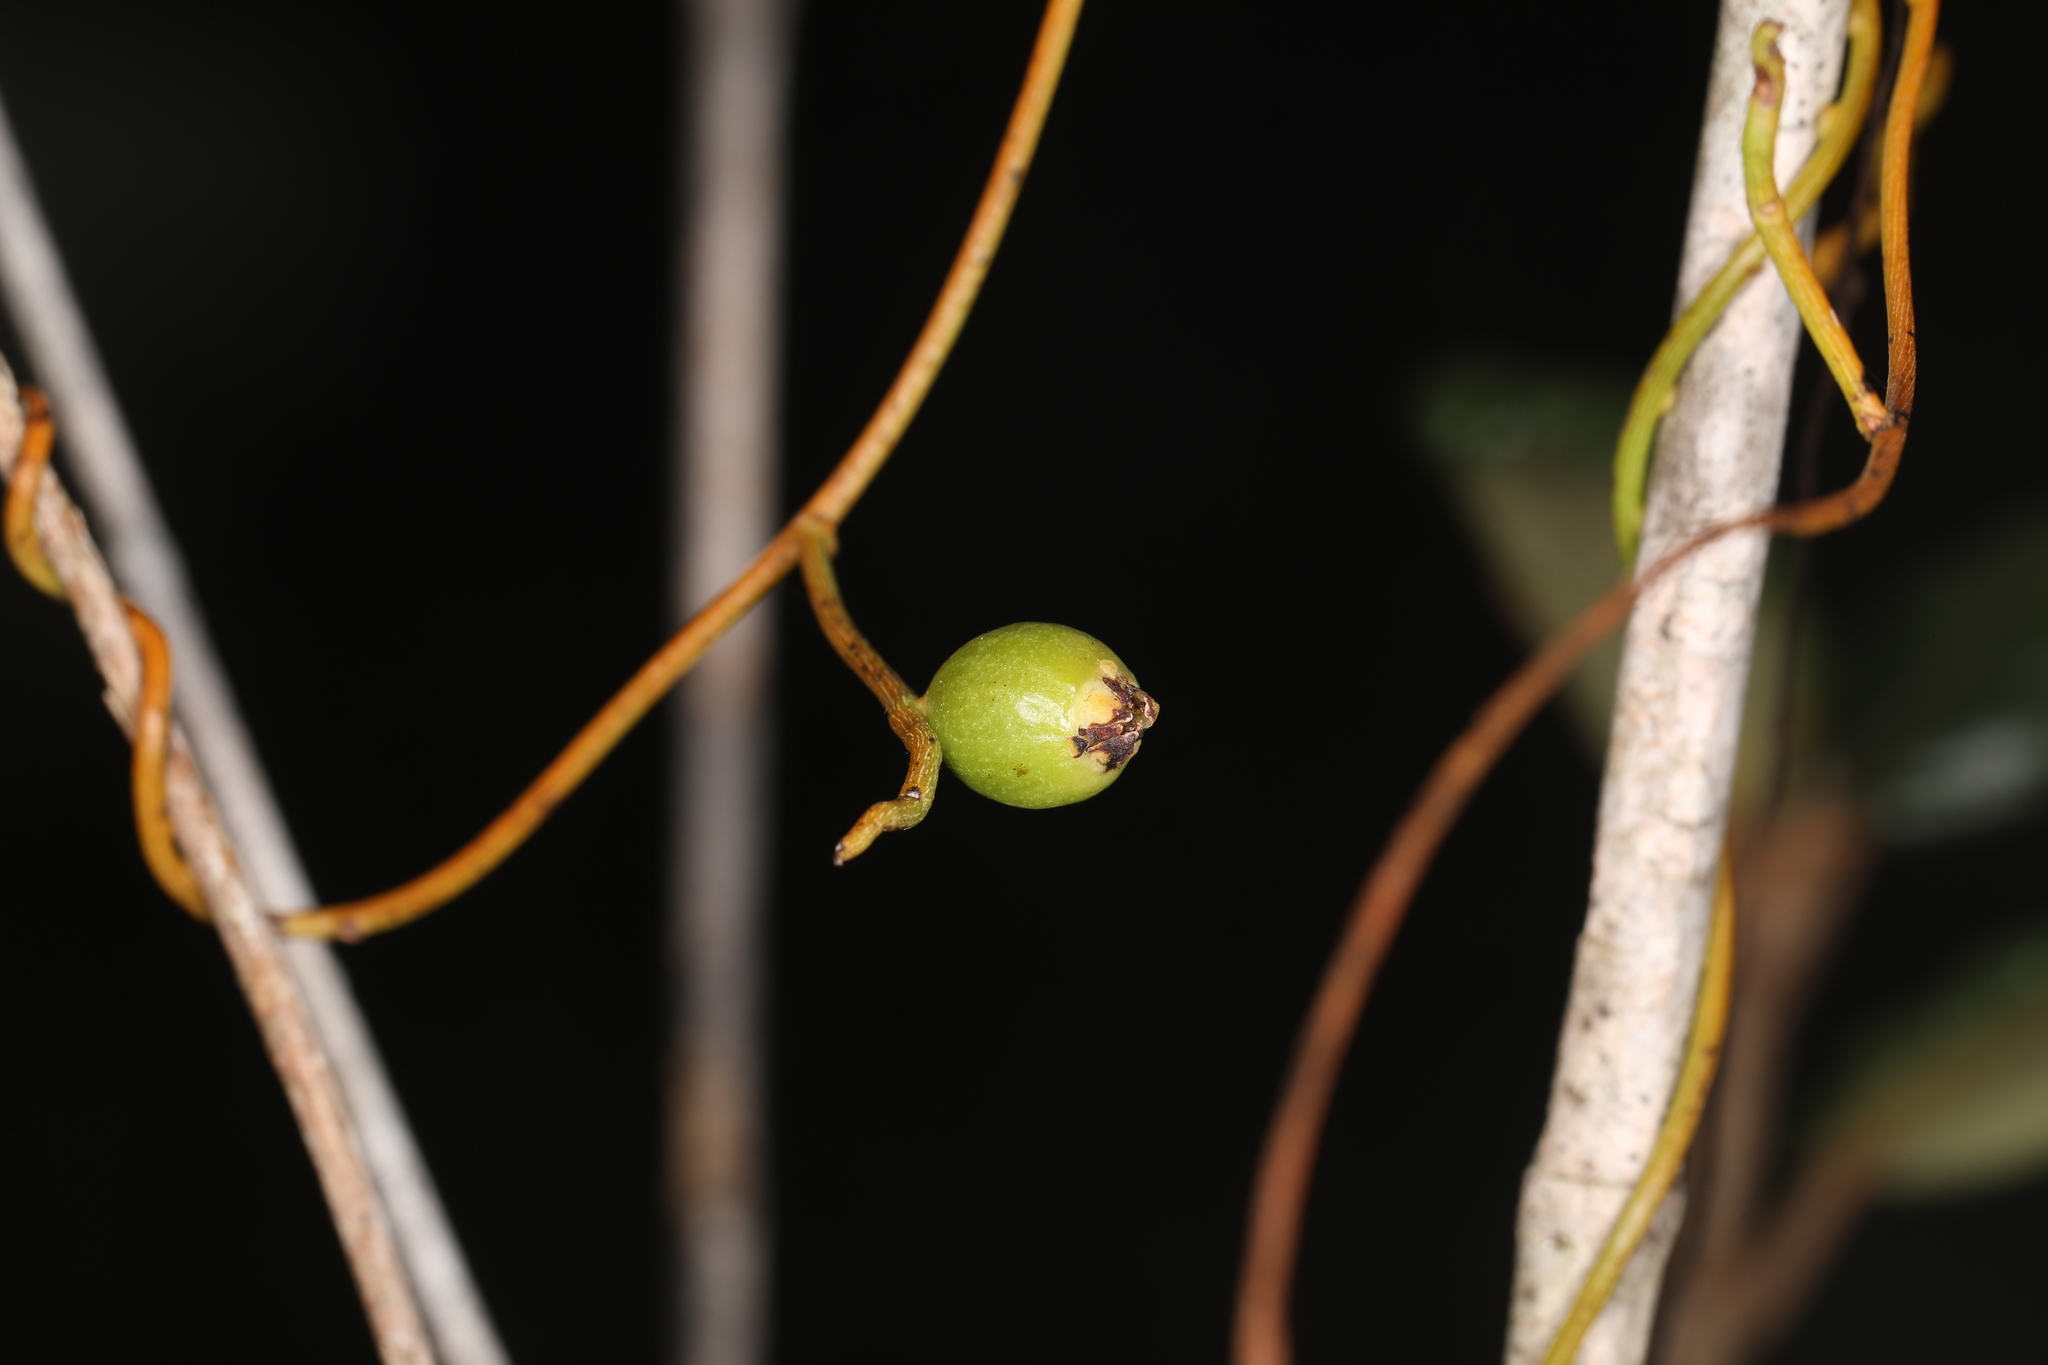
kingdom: Plantae
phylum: Tracheophyta
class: Magnoliopsida
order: Laurales
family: Lauraceae
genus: Cassytha
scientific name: Cassytha filiformis
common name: Dodder-laurel
